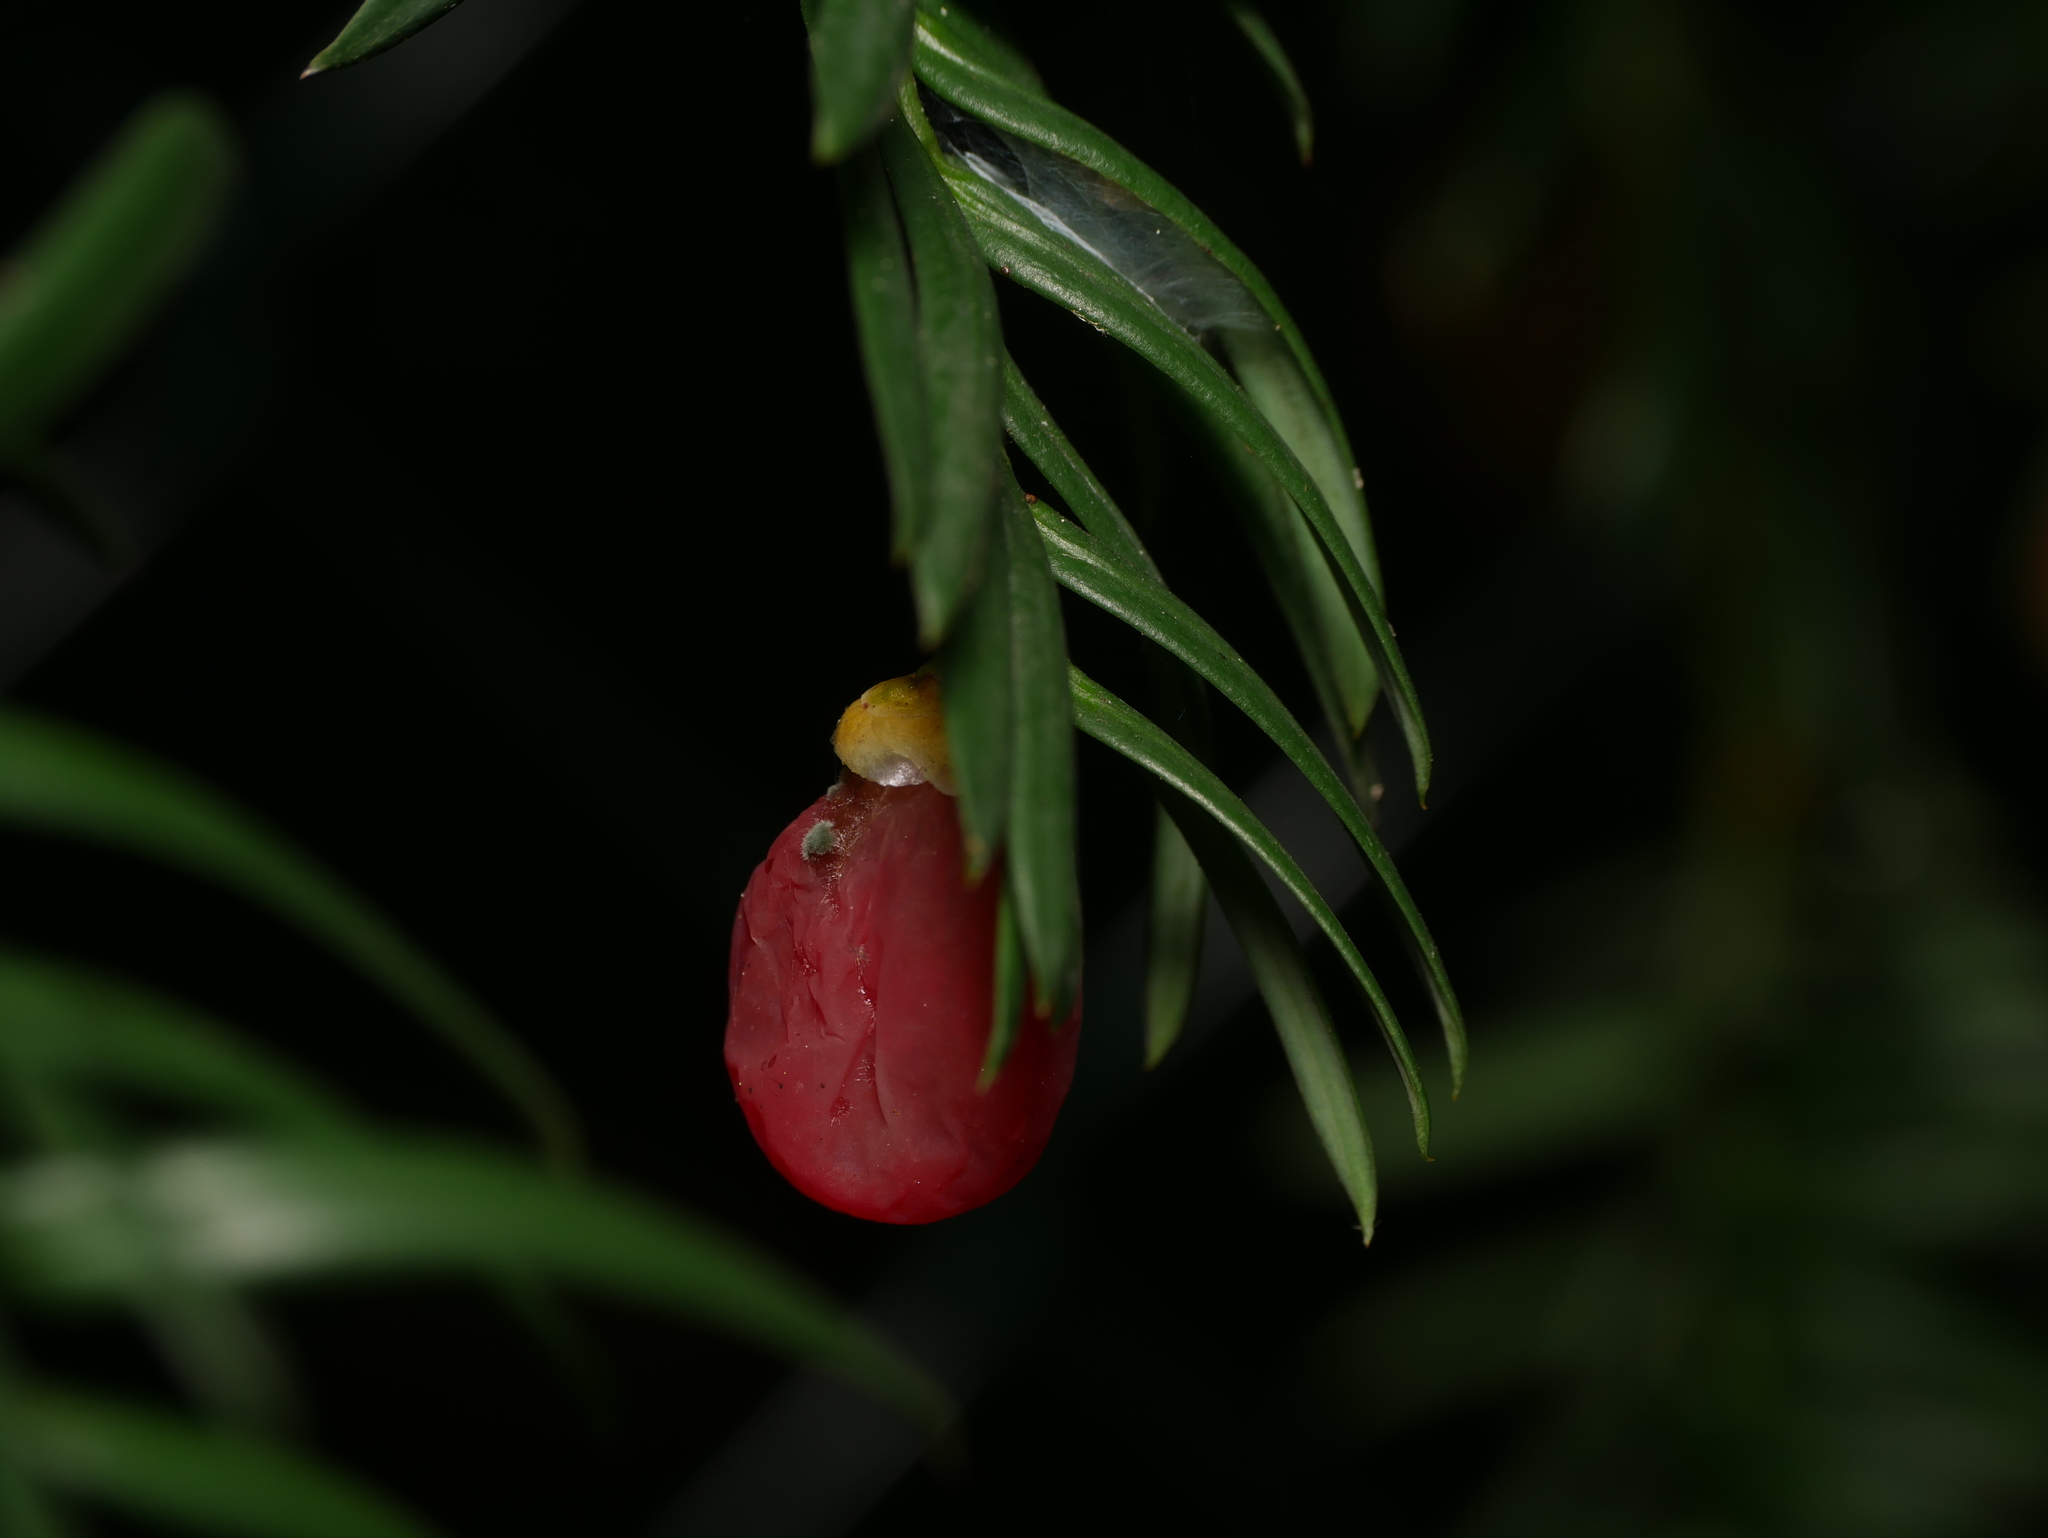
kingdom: Plantae
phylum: Tracheophyta
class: Pinopsida
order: Pinales
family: Taxaceae
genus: Taxus
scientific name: Taxus baccata
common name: Yew
